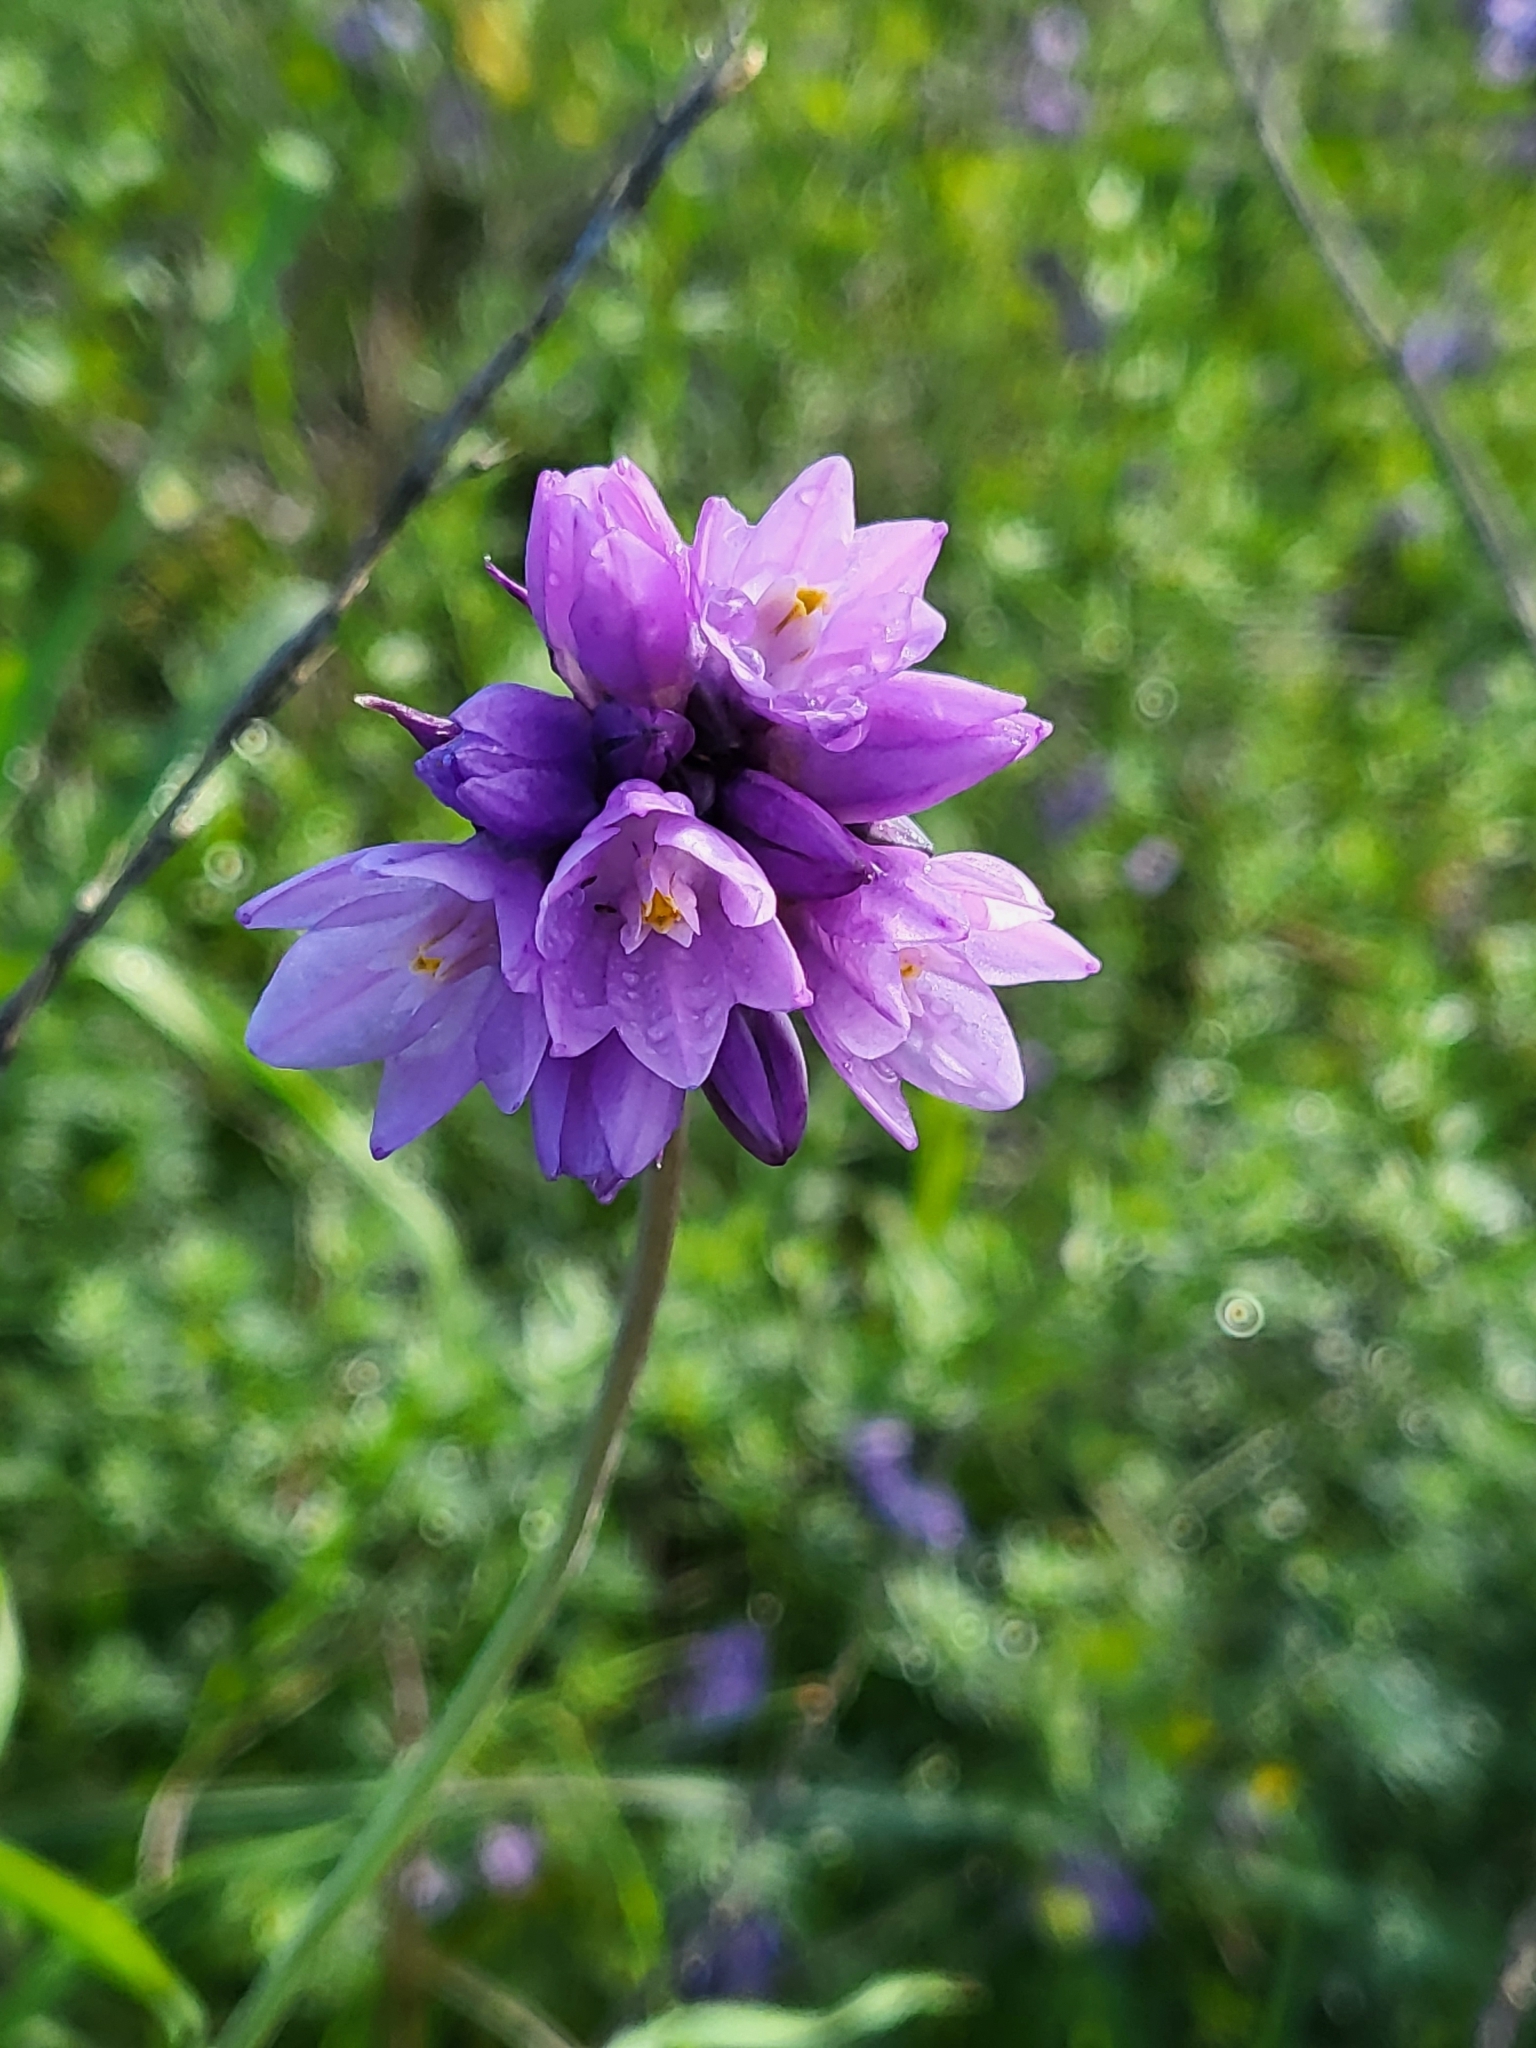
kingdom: Plantae
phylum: Tracheophyta
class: Liliopsida
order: Asparagales
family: Asparagaceae
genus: Dipterostemon
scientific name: Dipterostemon capitatus
